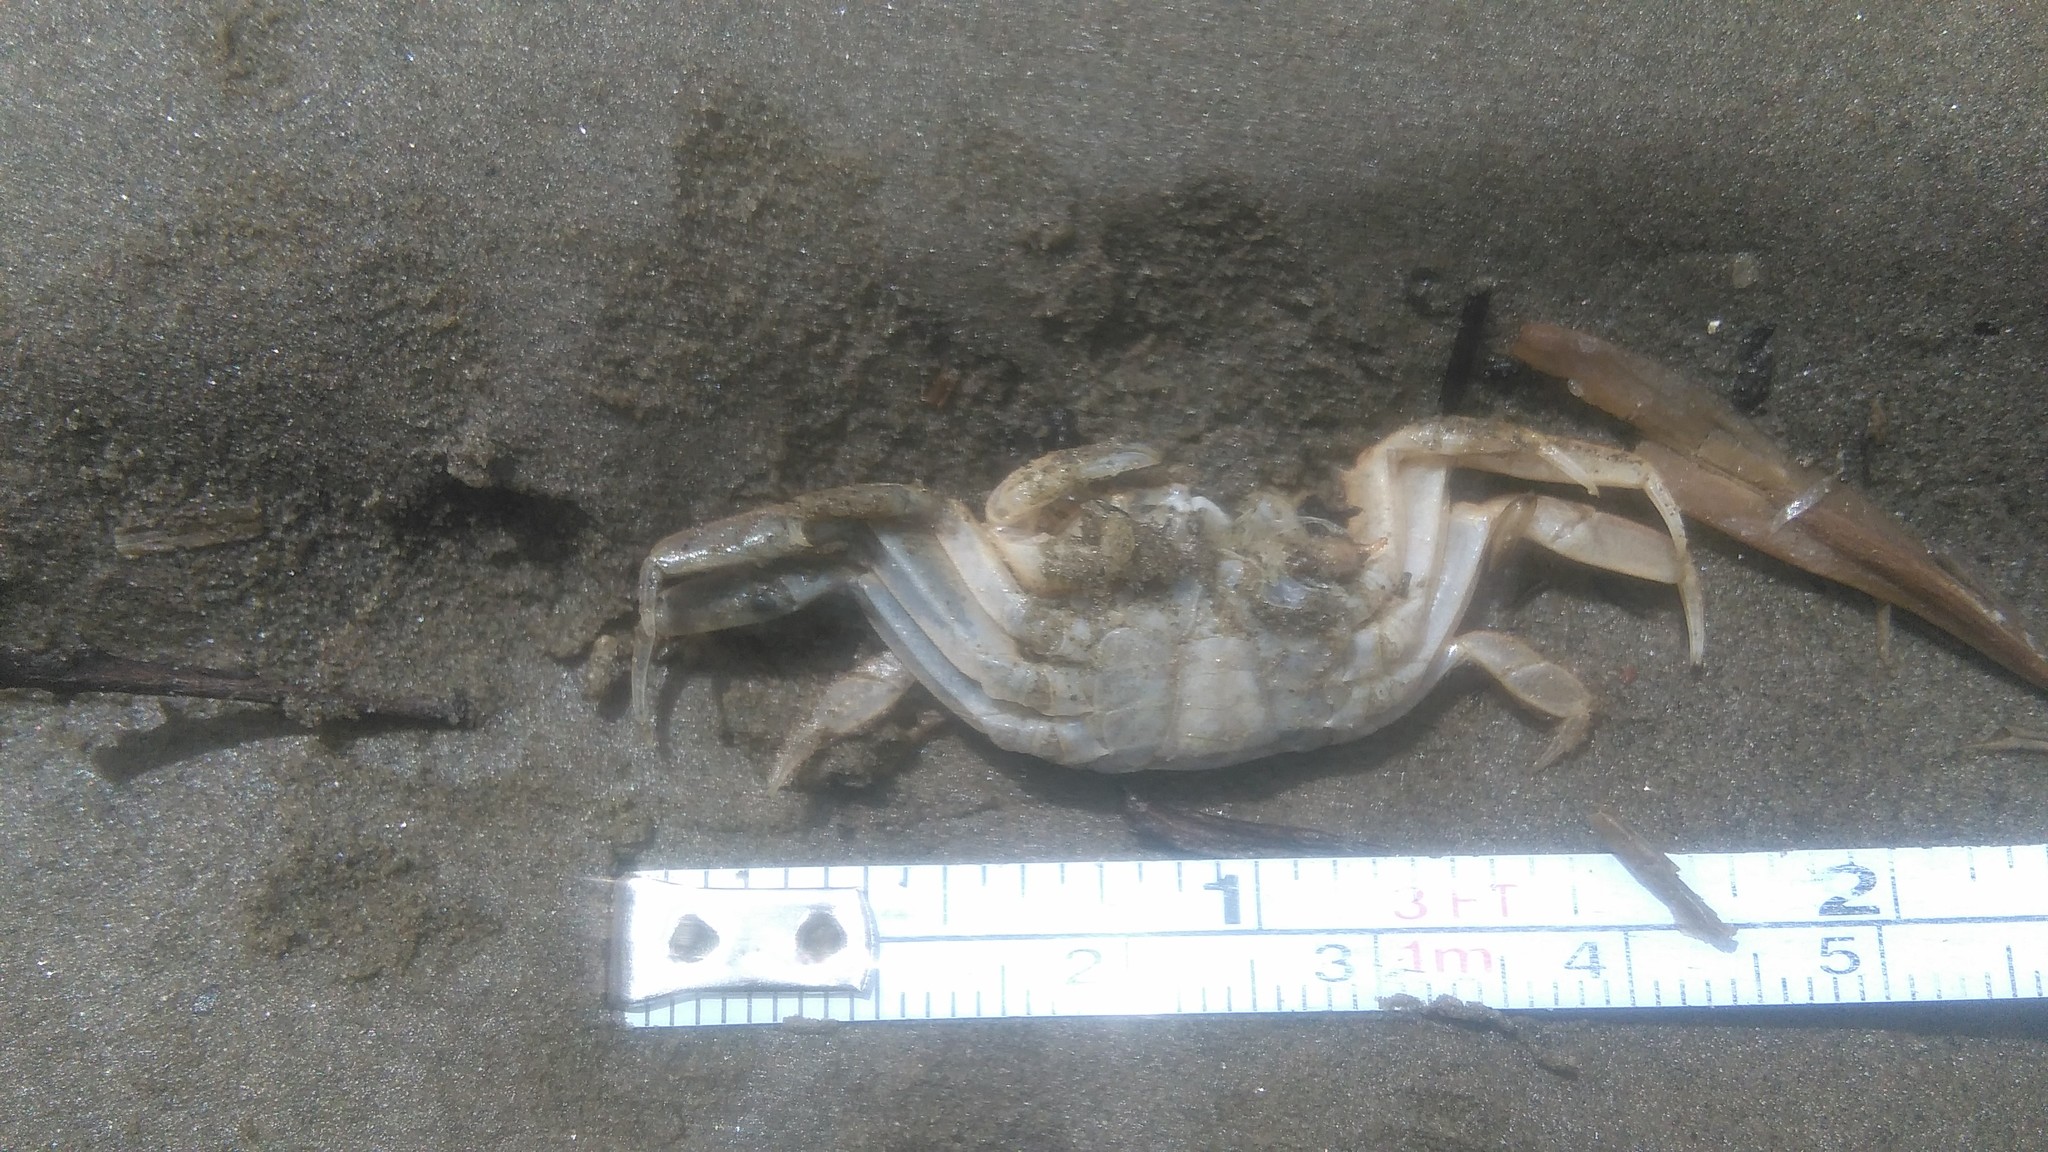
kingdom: Animalia
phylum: Arthropoda
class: Malacostraca
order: Decapoda
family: Varunidae
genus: Cyrtograpsus
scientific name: Cyrtograpsus angulatus
